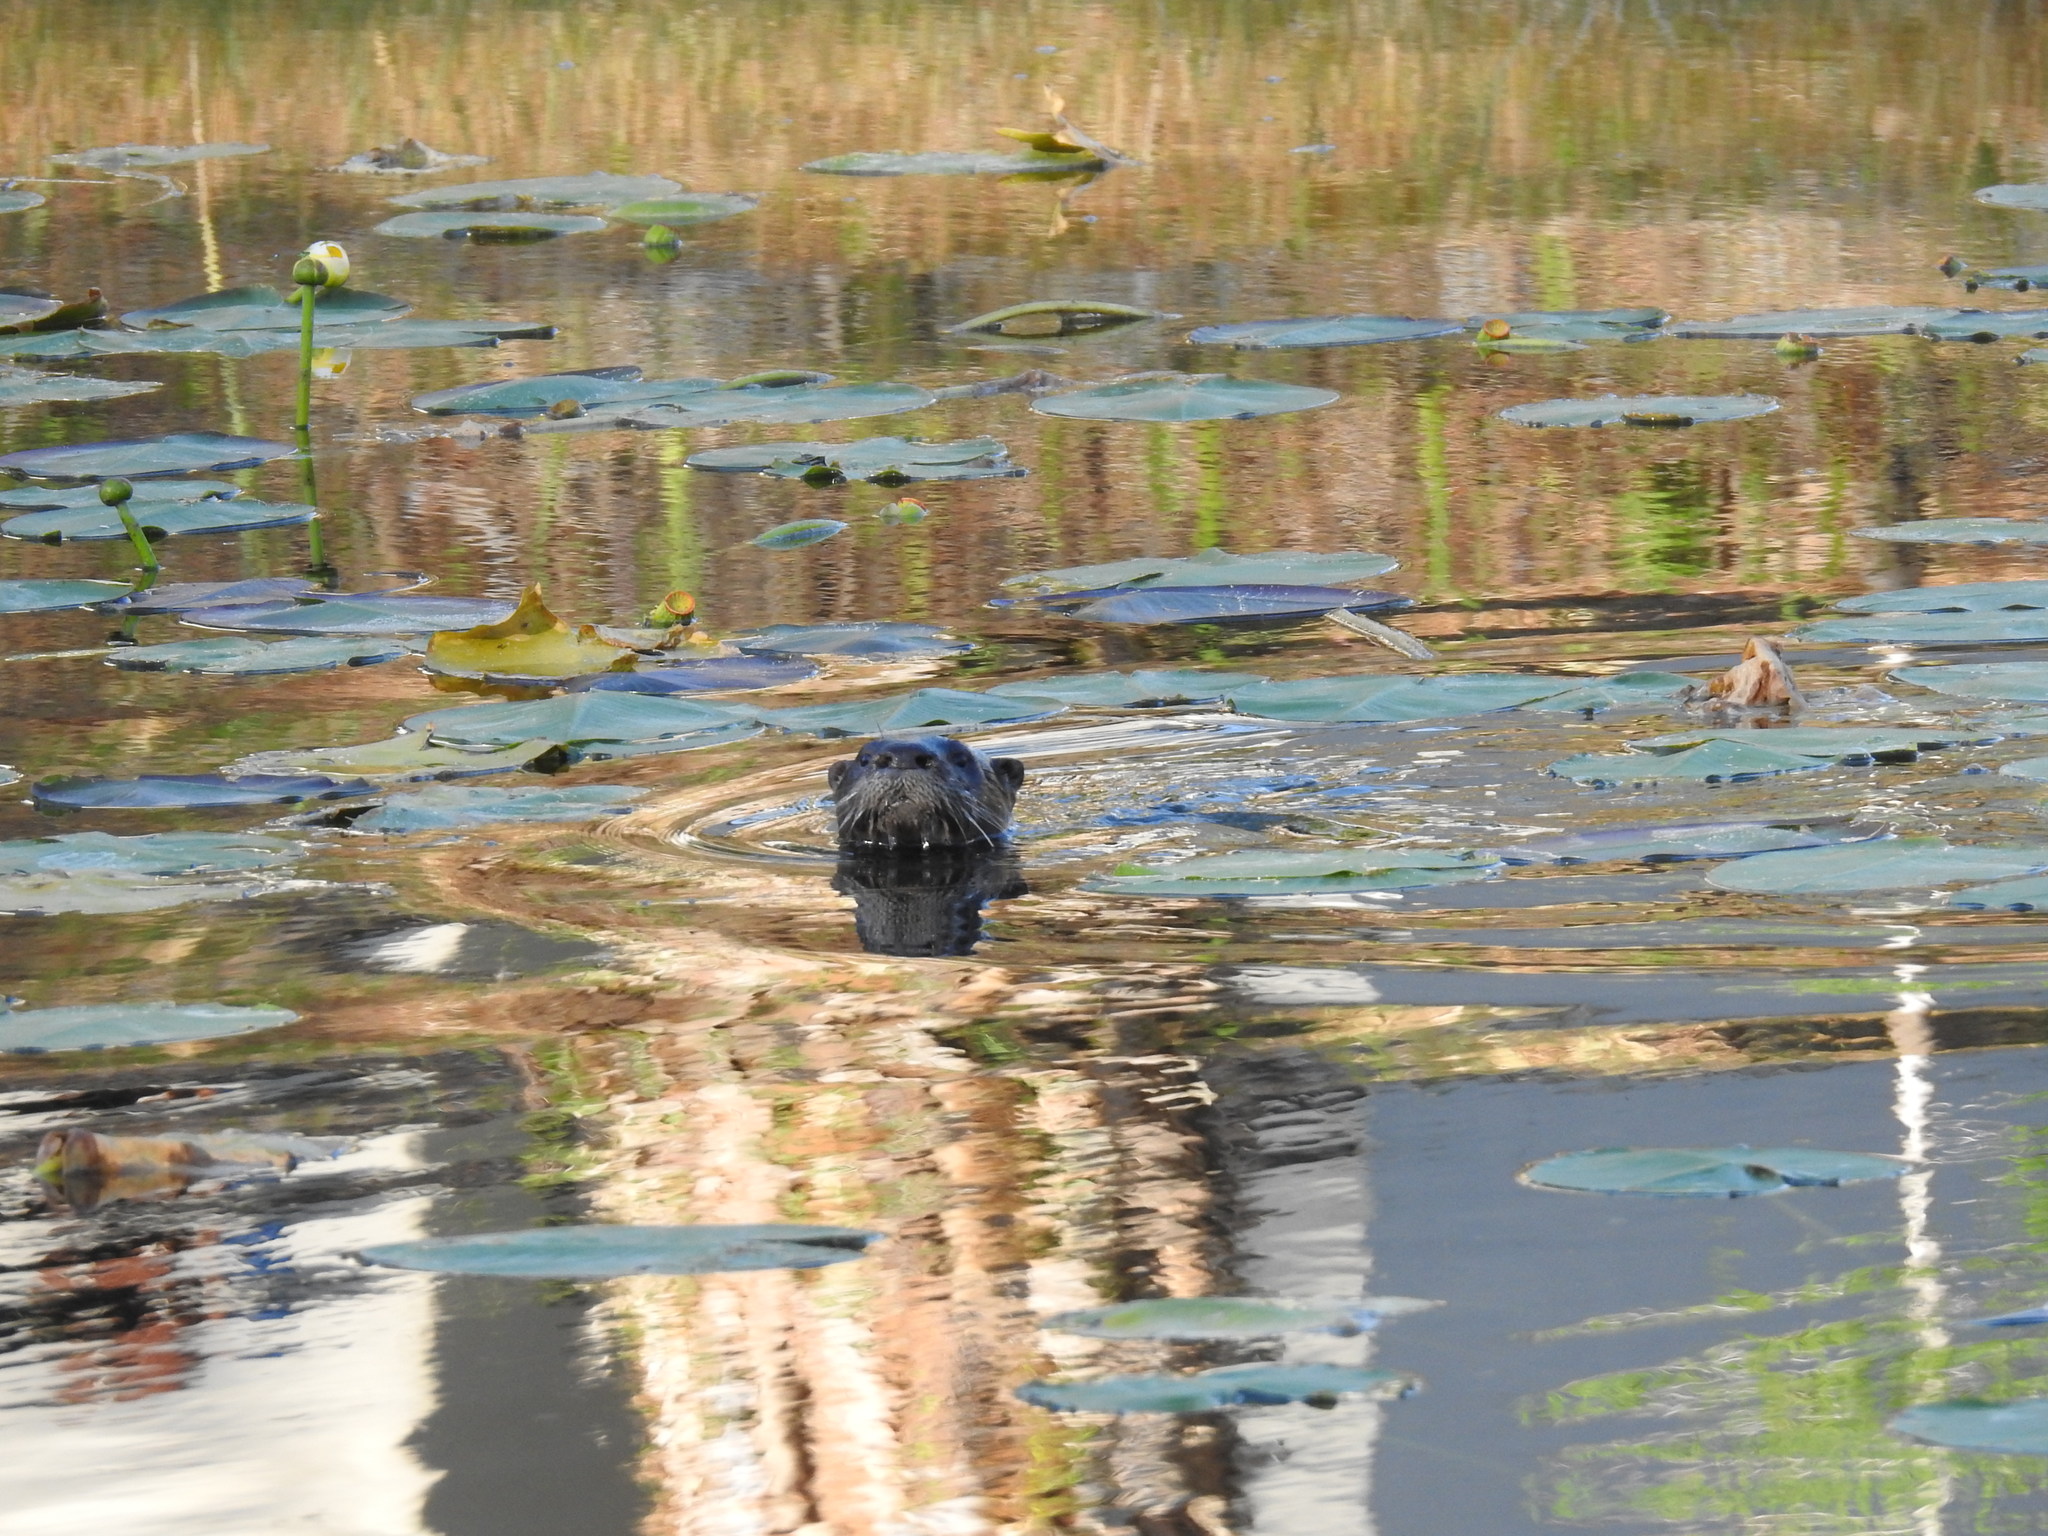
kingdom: Animalia
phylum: Chordata
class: Mammalia
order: Carnivora
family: Mustelidae
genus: Lontra
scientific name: Lontra canadensis
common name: North american river otter
